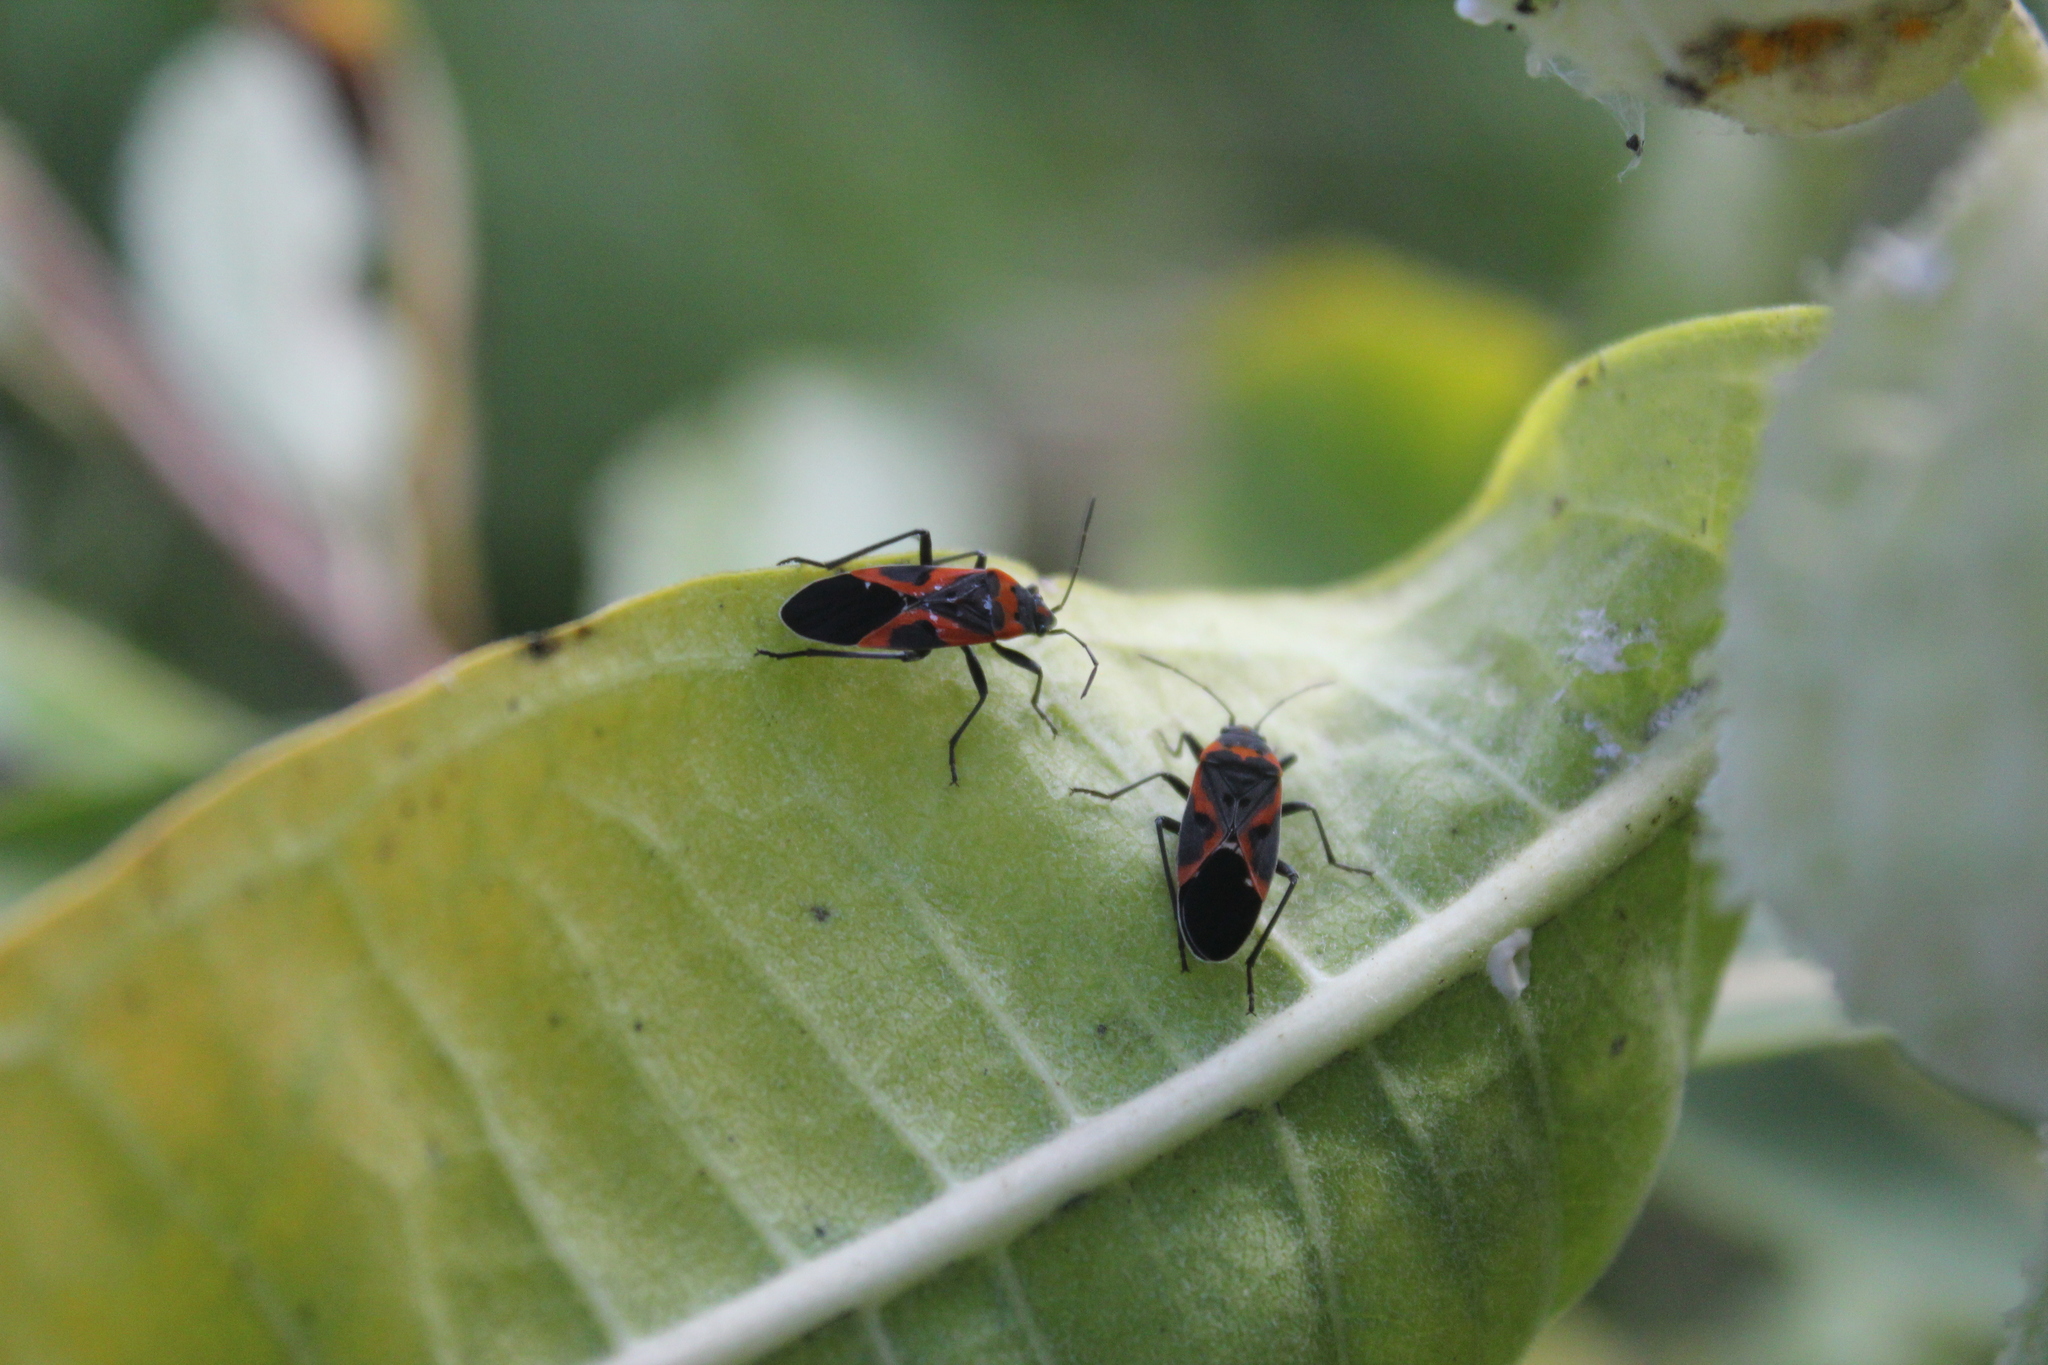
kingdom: Animalia
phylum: Arthropoda
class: Insecta
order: Hemiptera
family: Lygaeidae
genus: Lygaeus
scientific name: Lygaeus kalmii
